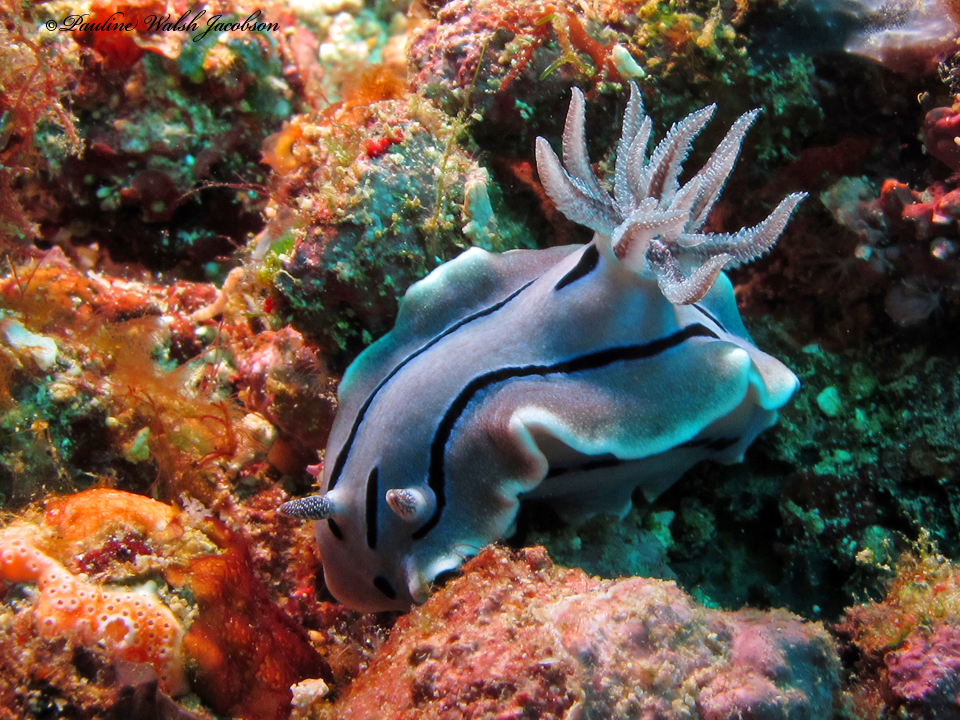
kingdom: Animalia
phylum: Mollusca
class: Gastropoda
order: Nudibranchia
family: Chromodorididae
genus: Chromodoris
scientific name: Chromodoris willani
